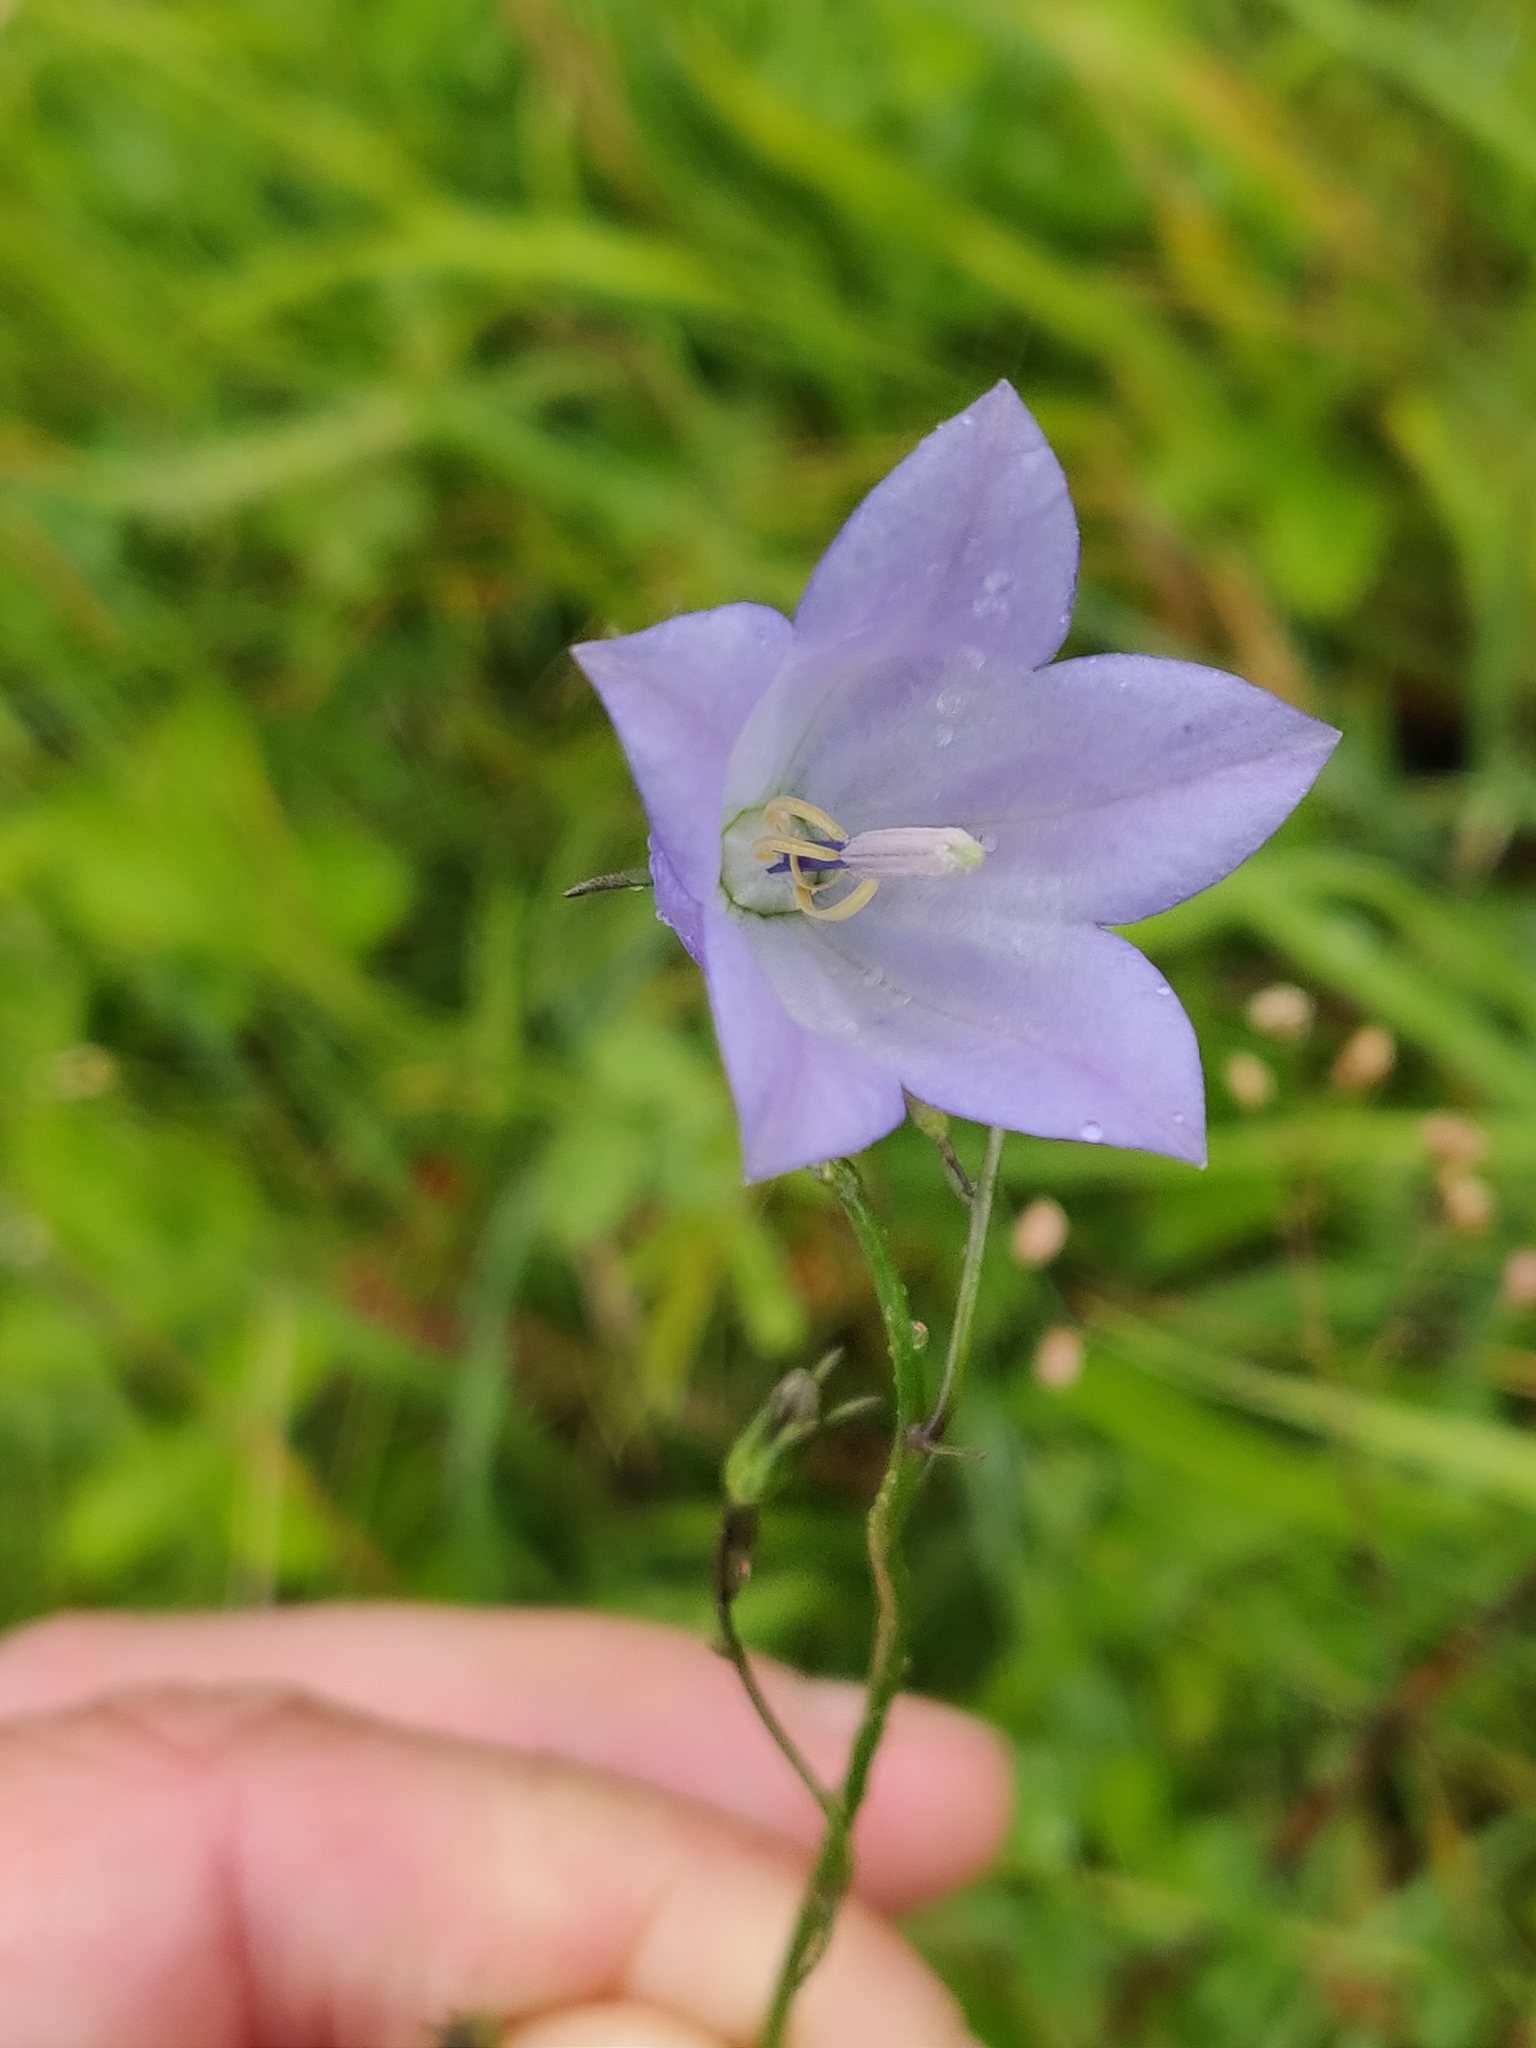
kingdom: Plantae
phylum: Tracheophyta
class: Magnoliopsida
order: Asterales
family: Campanulaceae
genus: Campanula
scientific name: Campanula rotundifolia
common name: Harebell
